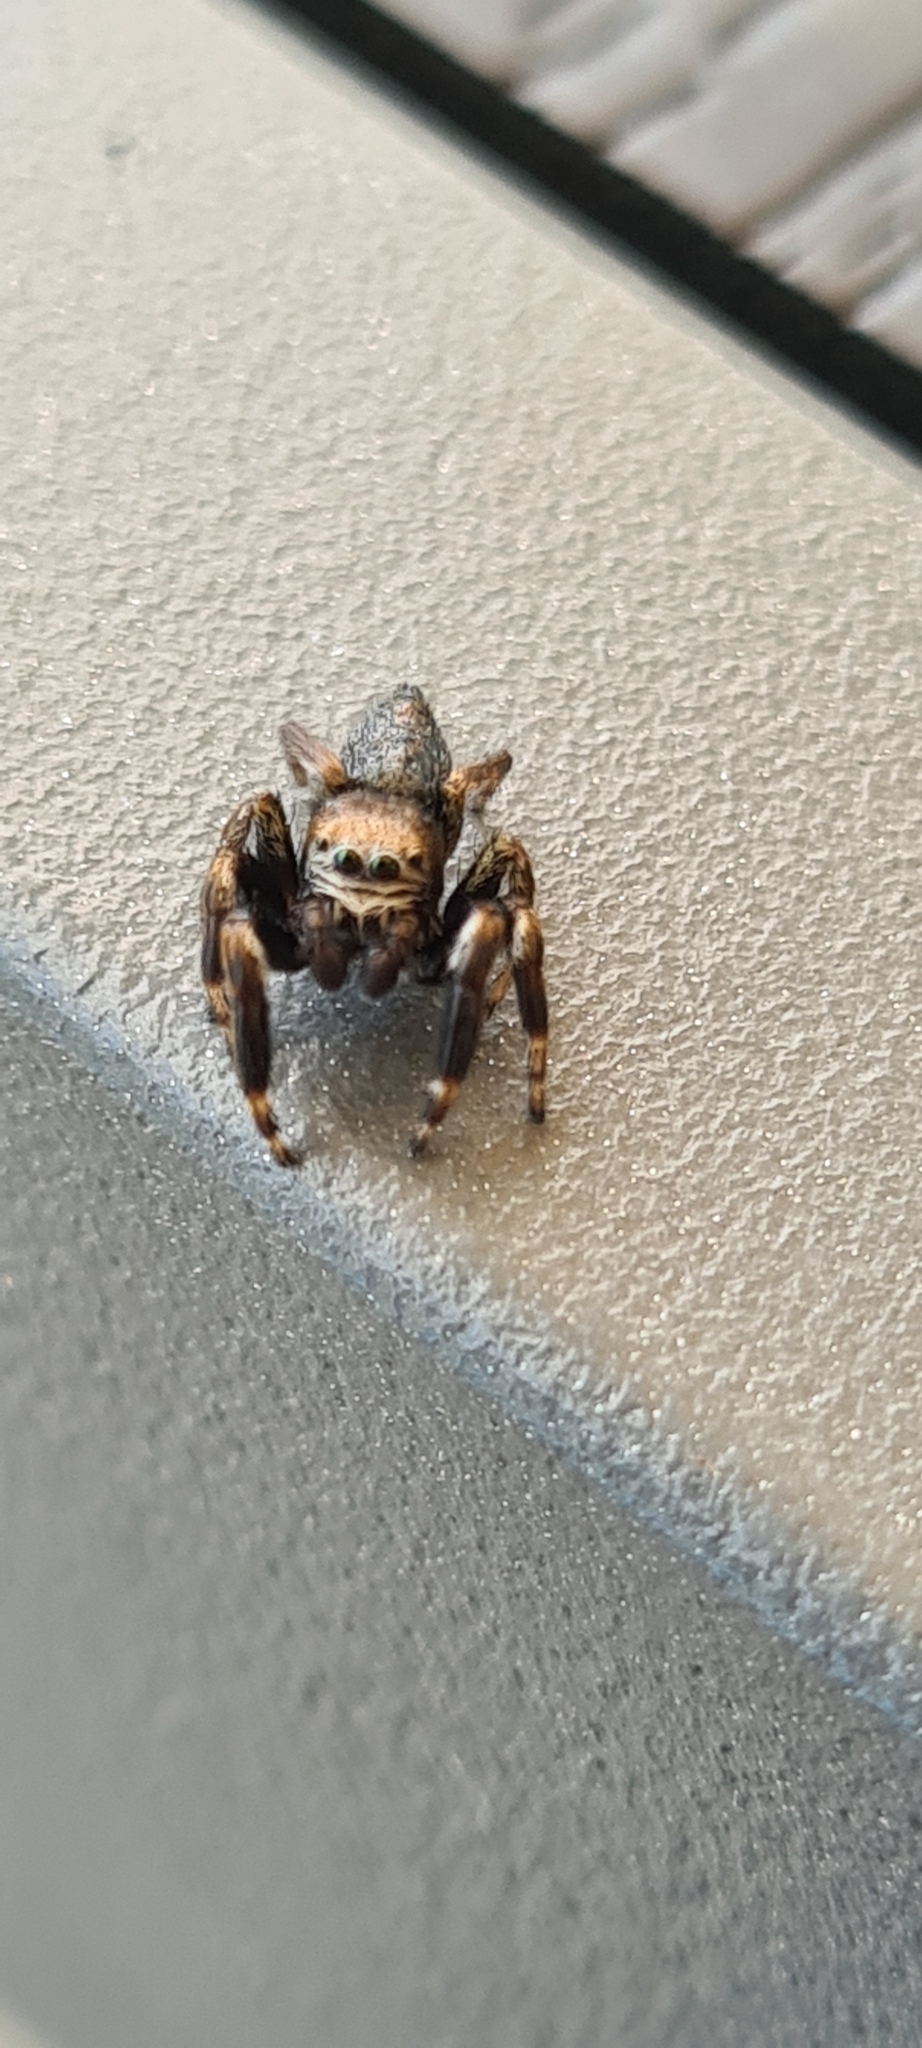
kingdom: Animalia
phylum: Arthropoda
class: Arachnida
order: Araneae
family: Salticidae
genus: Evarcha
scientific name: Evarcha arcuata
